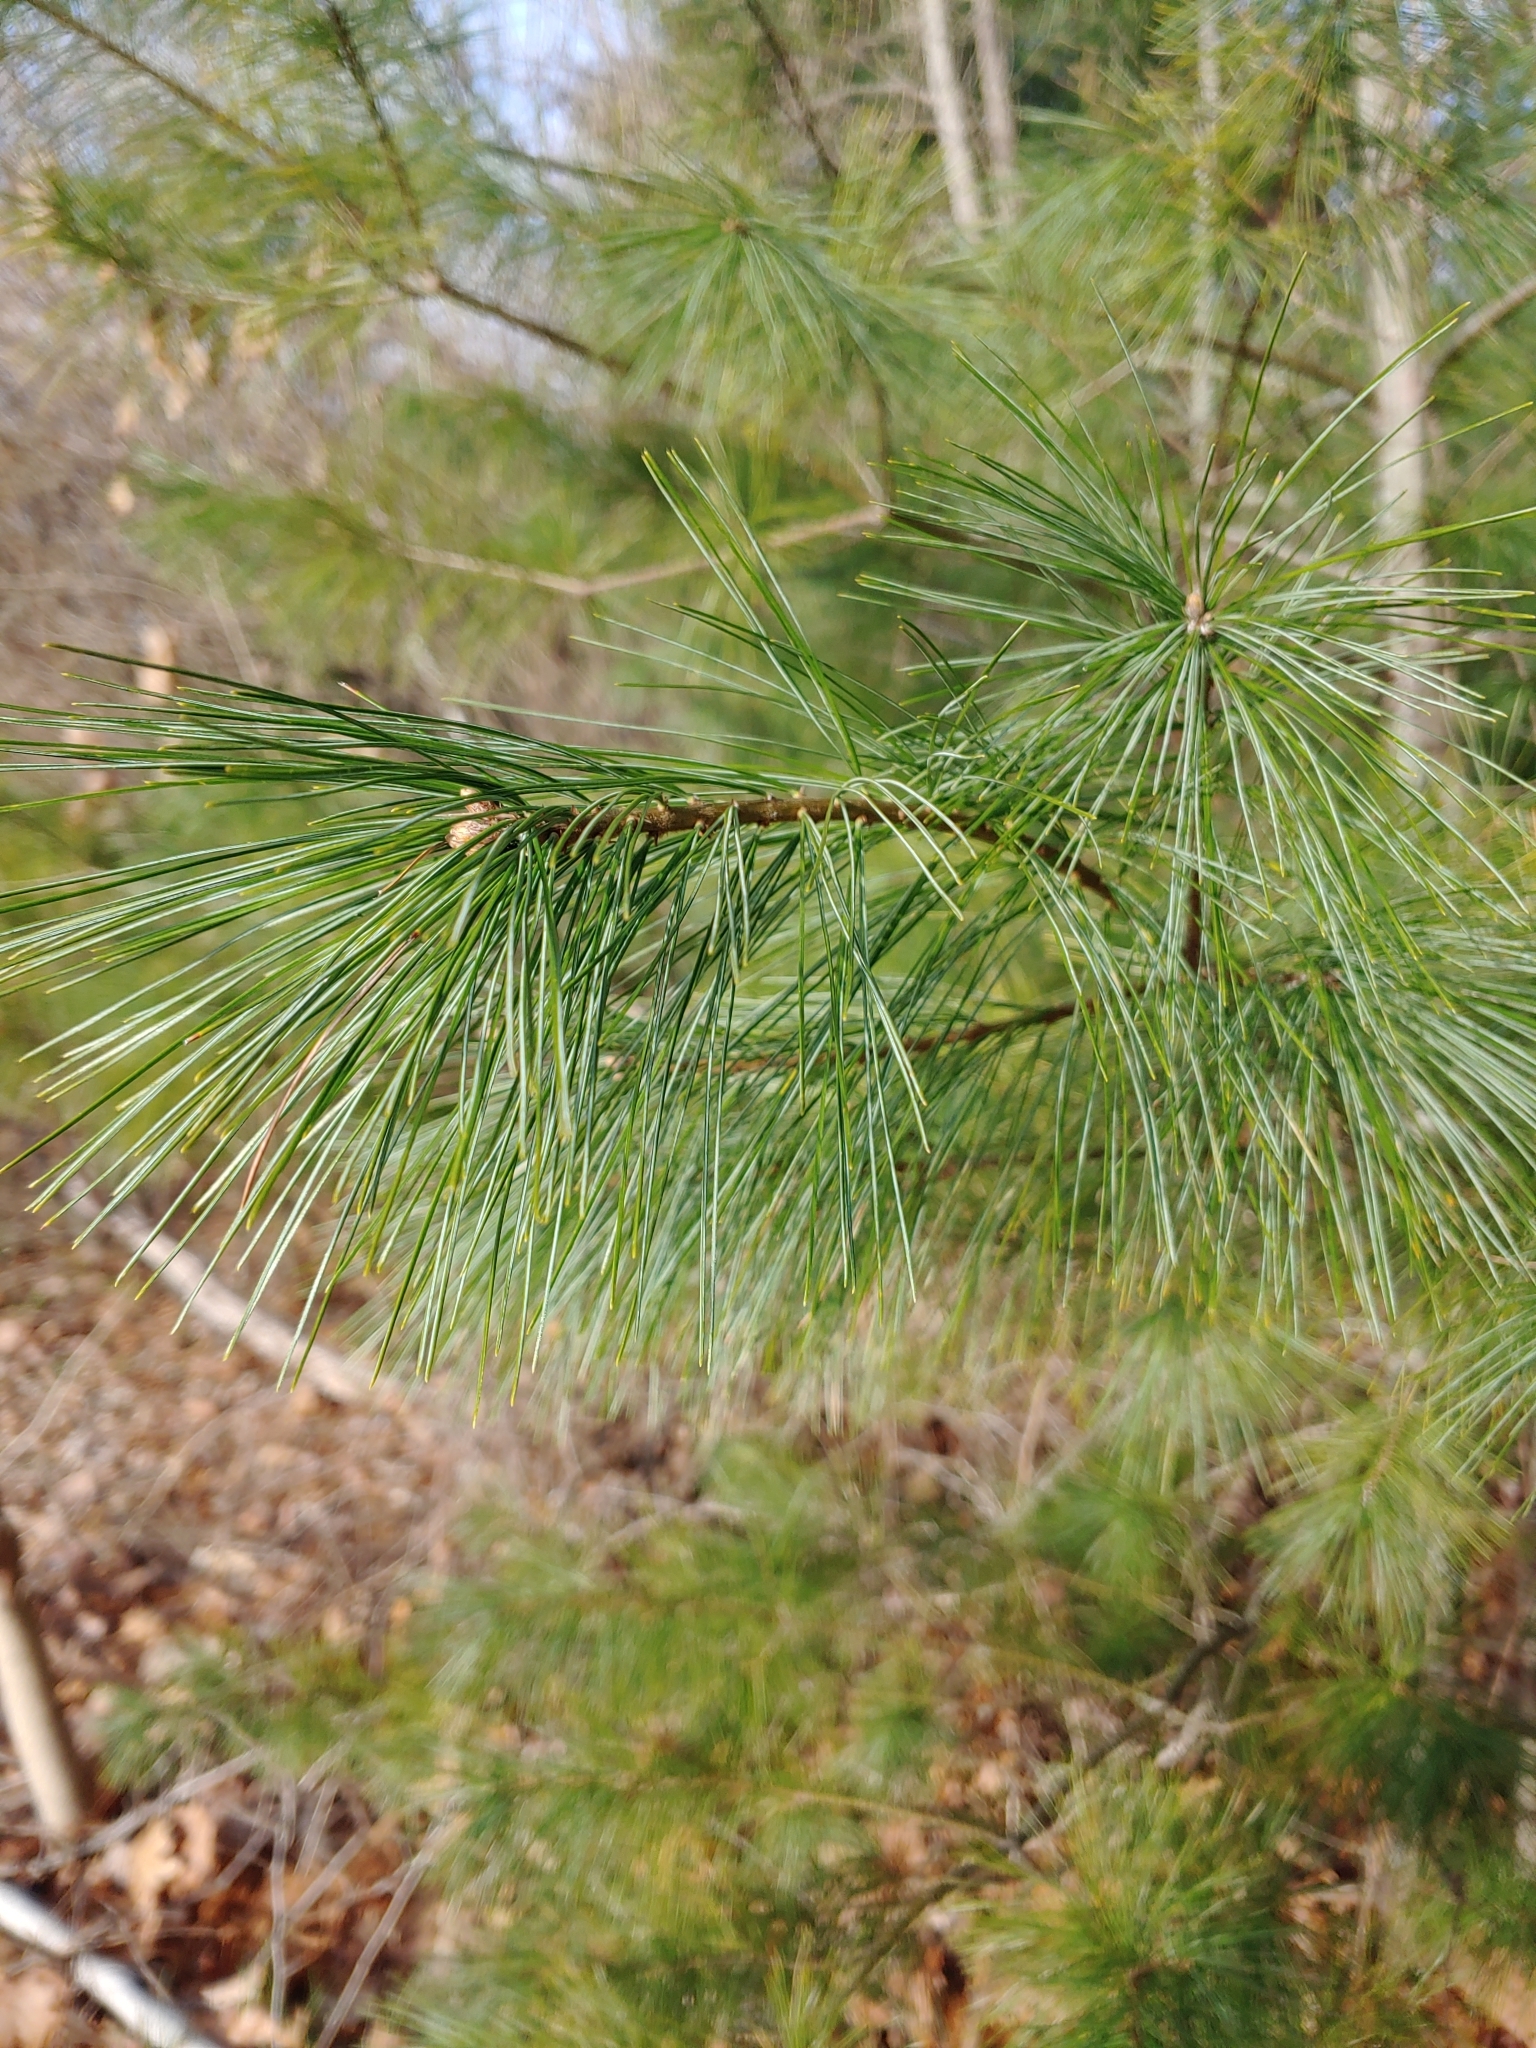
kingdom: Plantae
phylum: Tracheophyta
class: Pinopsida
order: Pinales
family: Pinaceae
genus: Pinus
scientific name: Pinus strobus
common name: Weymouth pine
